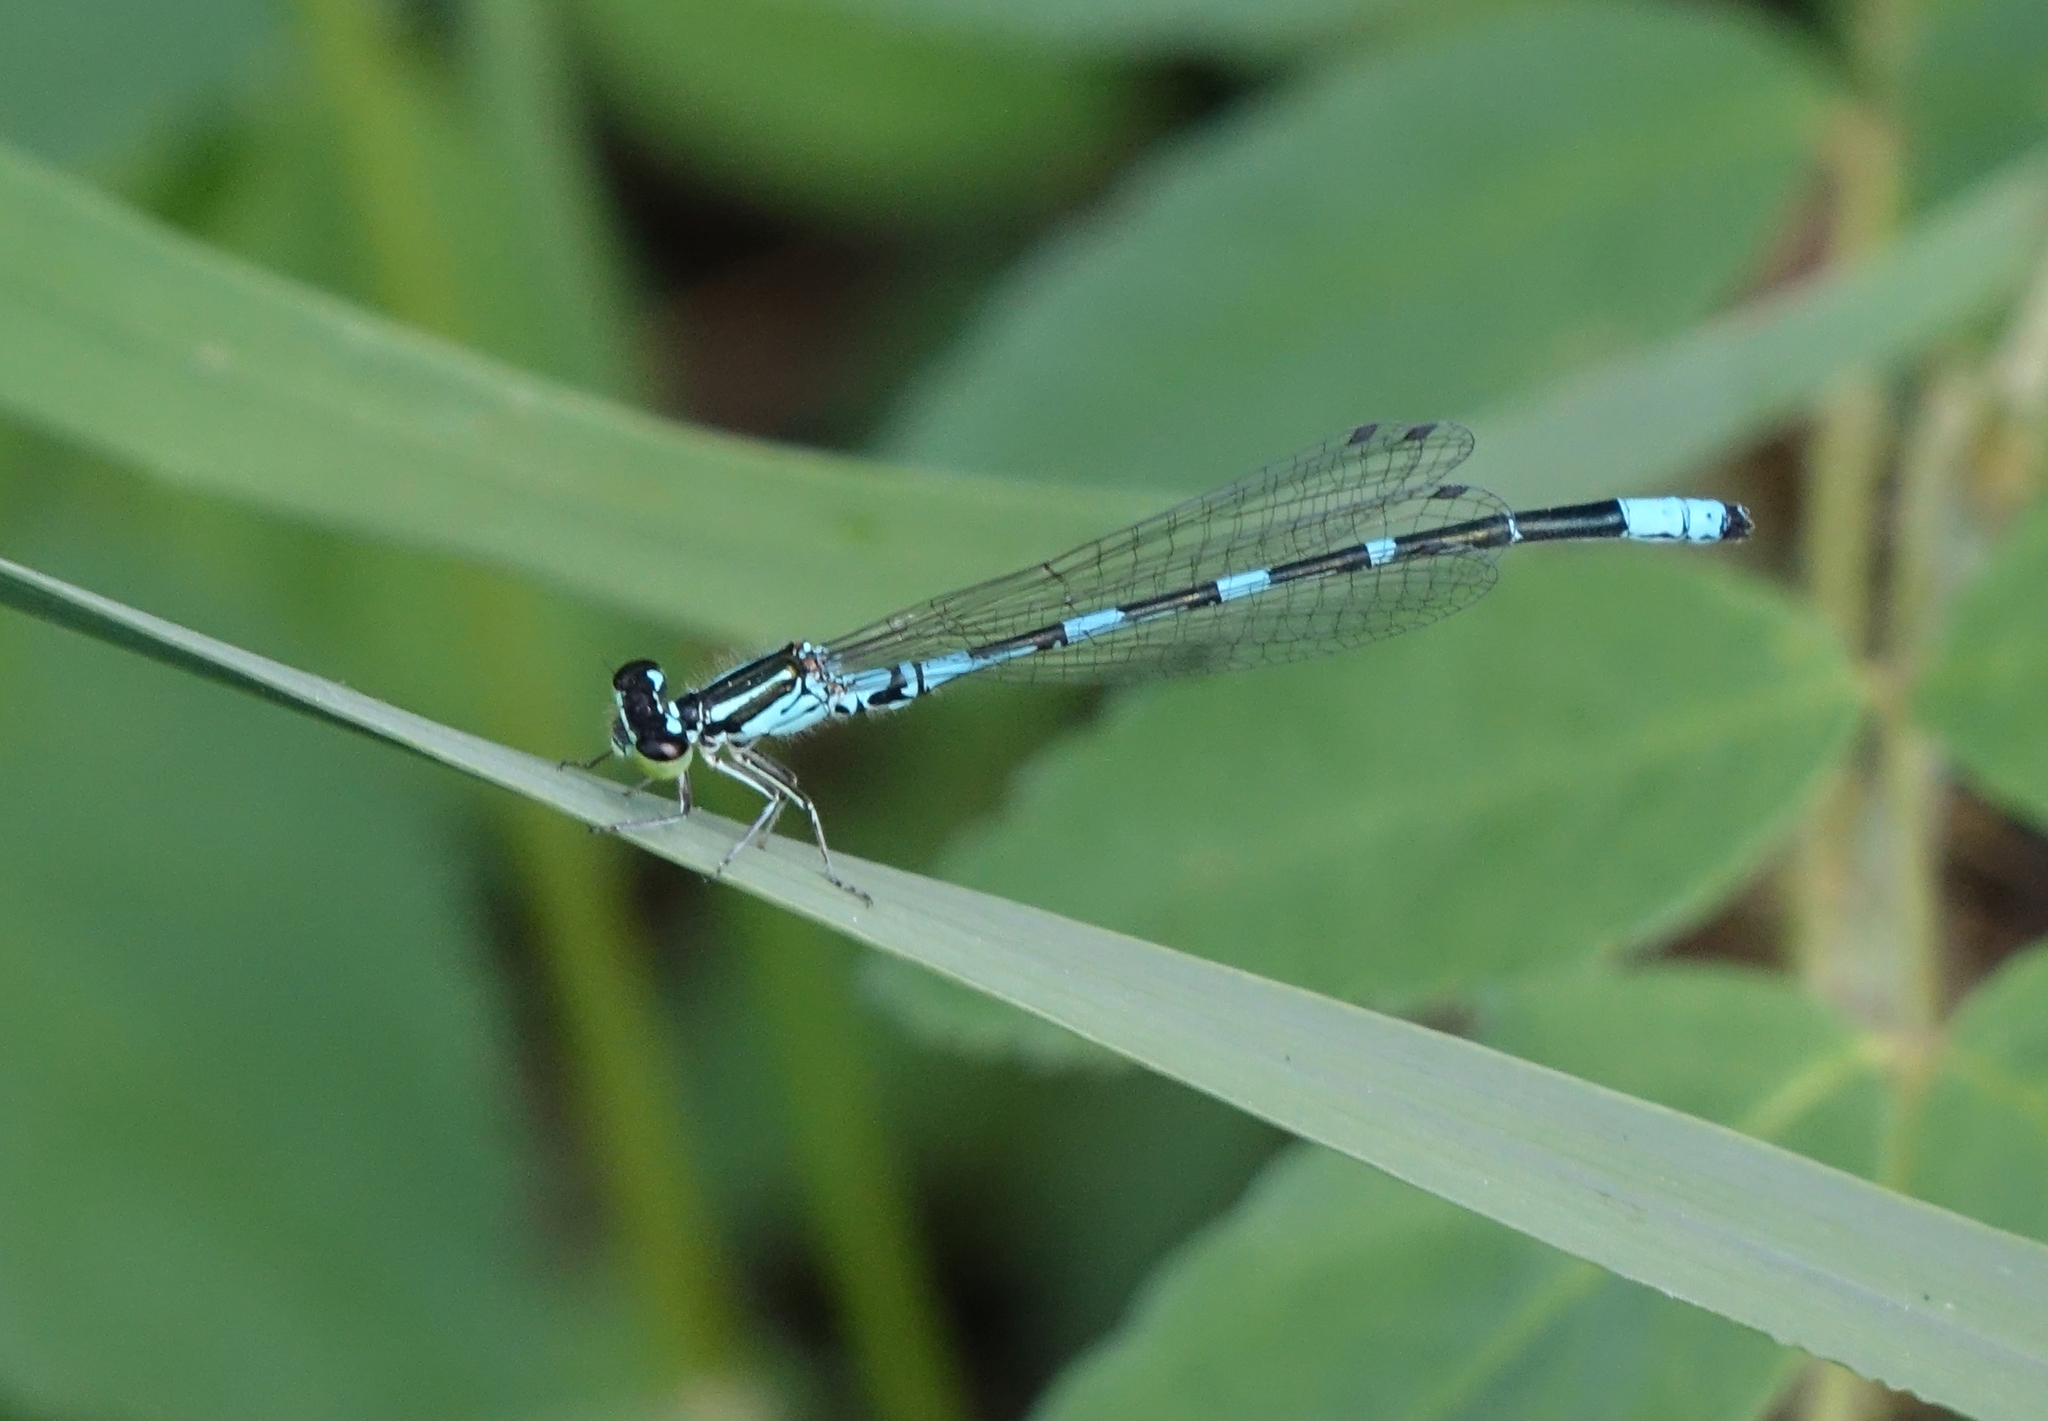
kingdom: Animalia
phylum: Arthropoda
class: Insecta
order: Odonata
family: Coenagrionidae
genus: Coenagrion
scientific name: Coenagrion johanssoni
